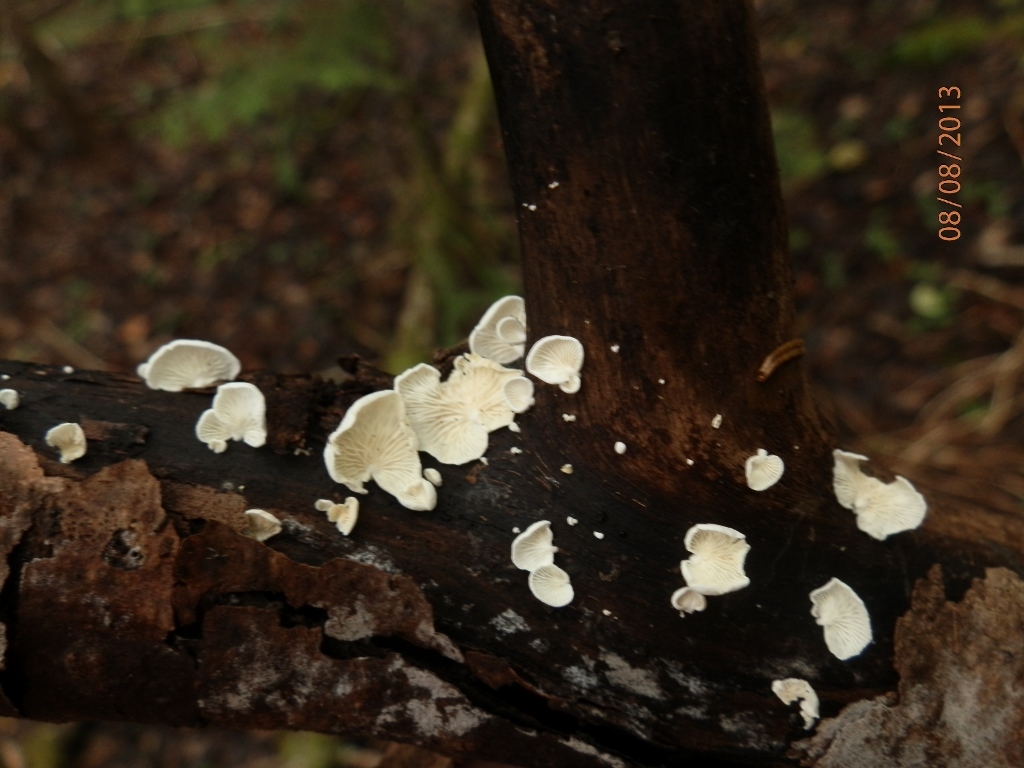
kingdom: Fungi
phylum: Basidiomycota
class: Agaricomycetes
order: Agaricales
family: Cyphellaceae
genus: Cheimonophyllum
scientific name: Cheimonophyllum
